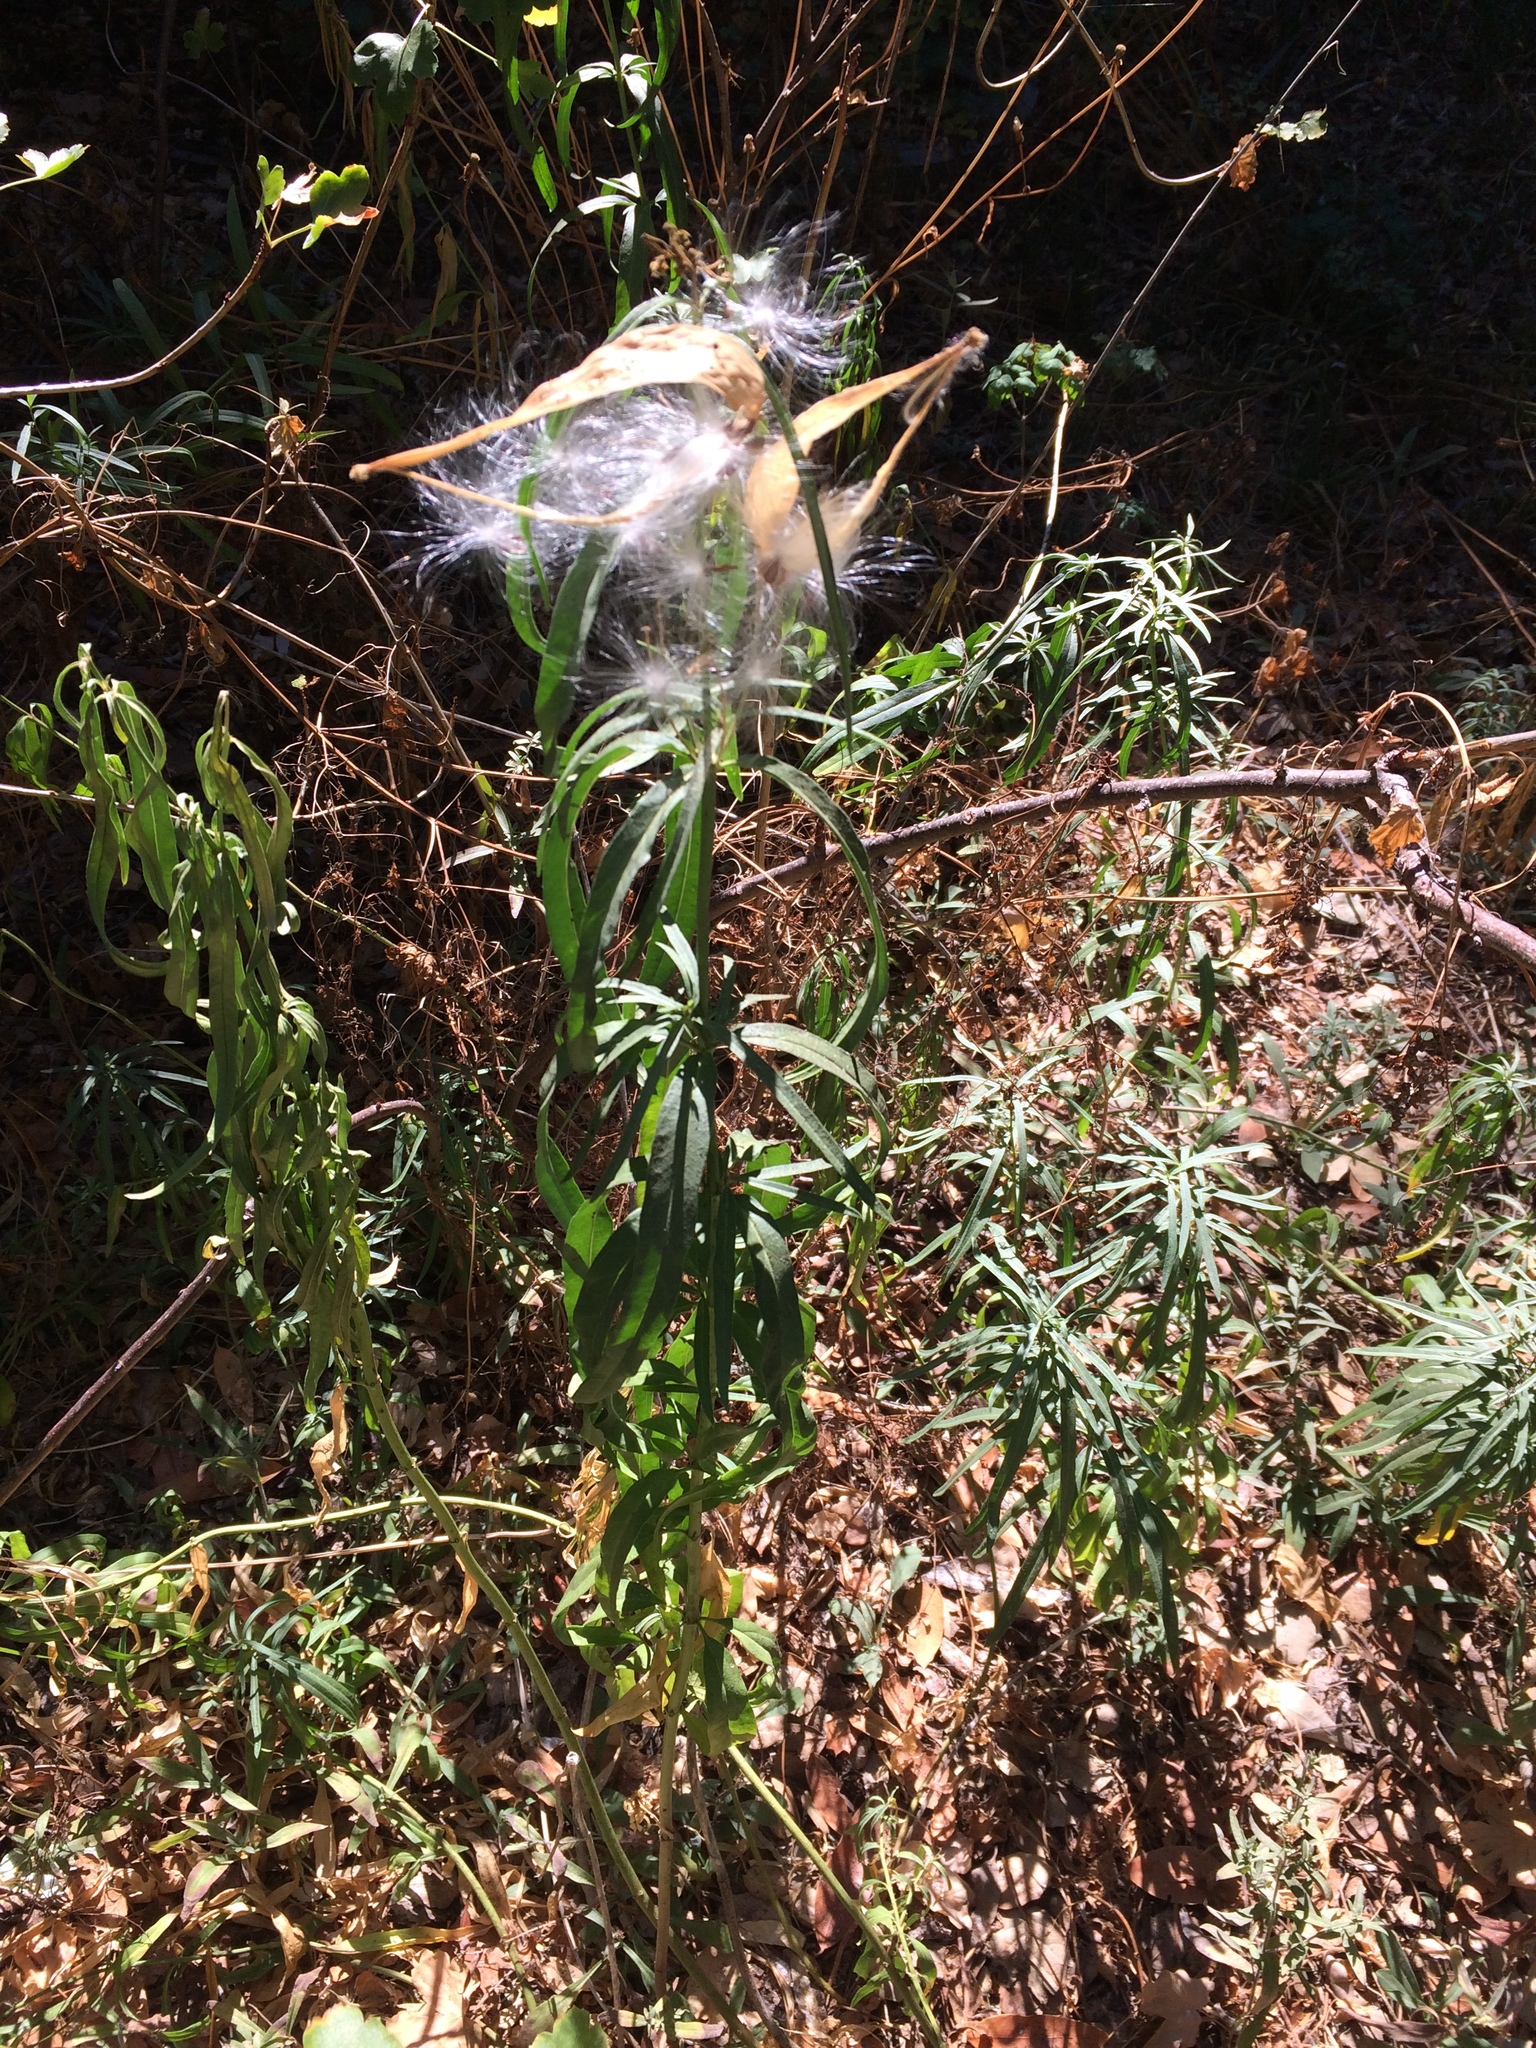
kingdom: Plantae
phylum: Tracheophyta
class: Magnoliopsida
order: Gentianales
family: Apocynaceae
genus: Asclepias
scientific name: Asclepias fascicularis
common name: Mexican milkweed
